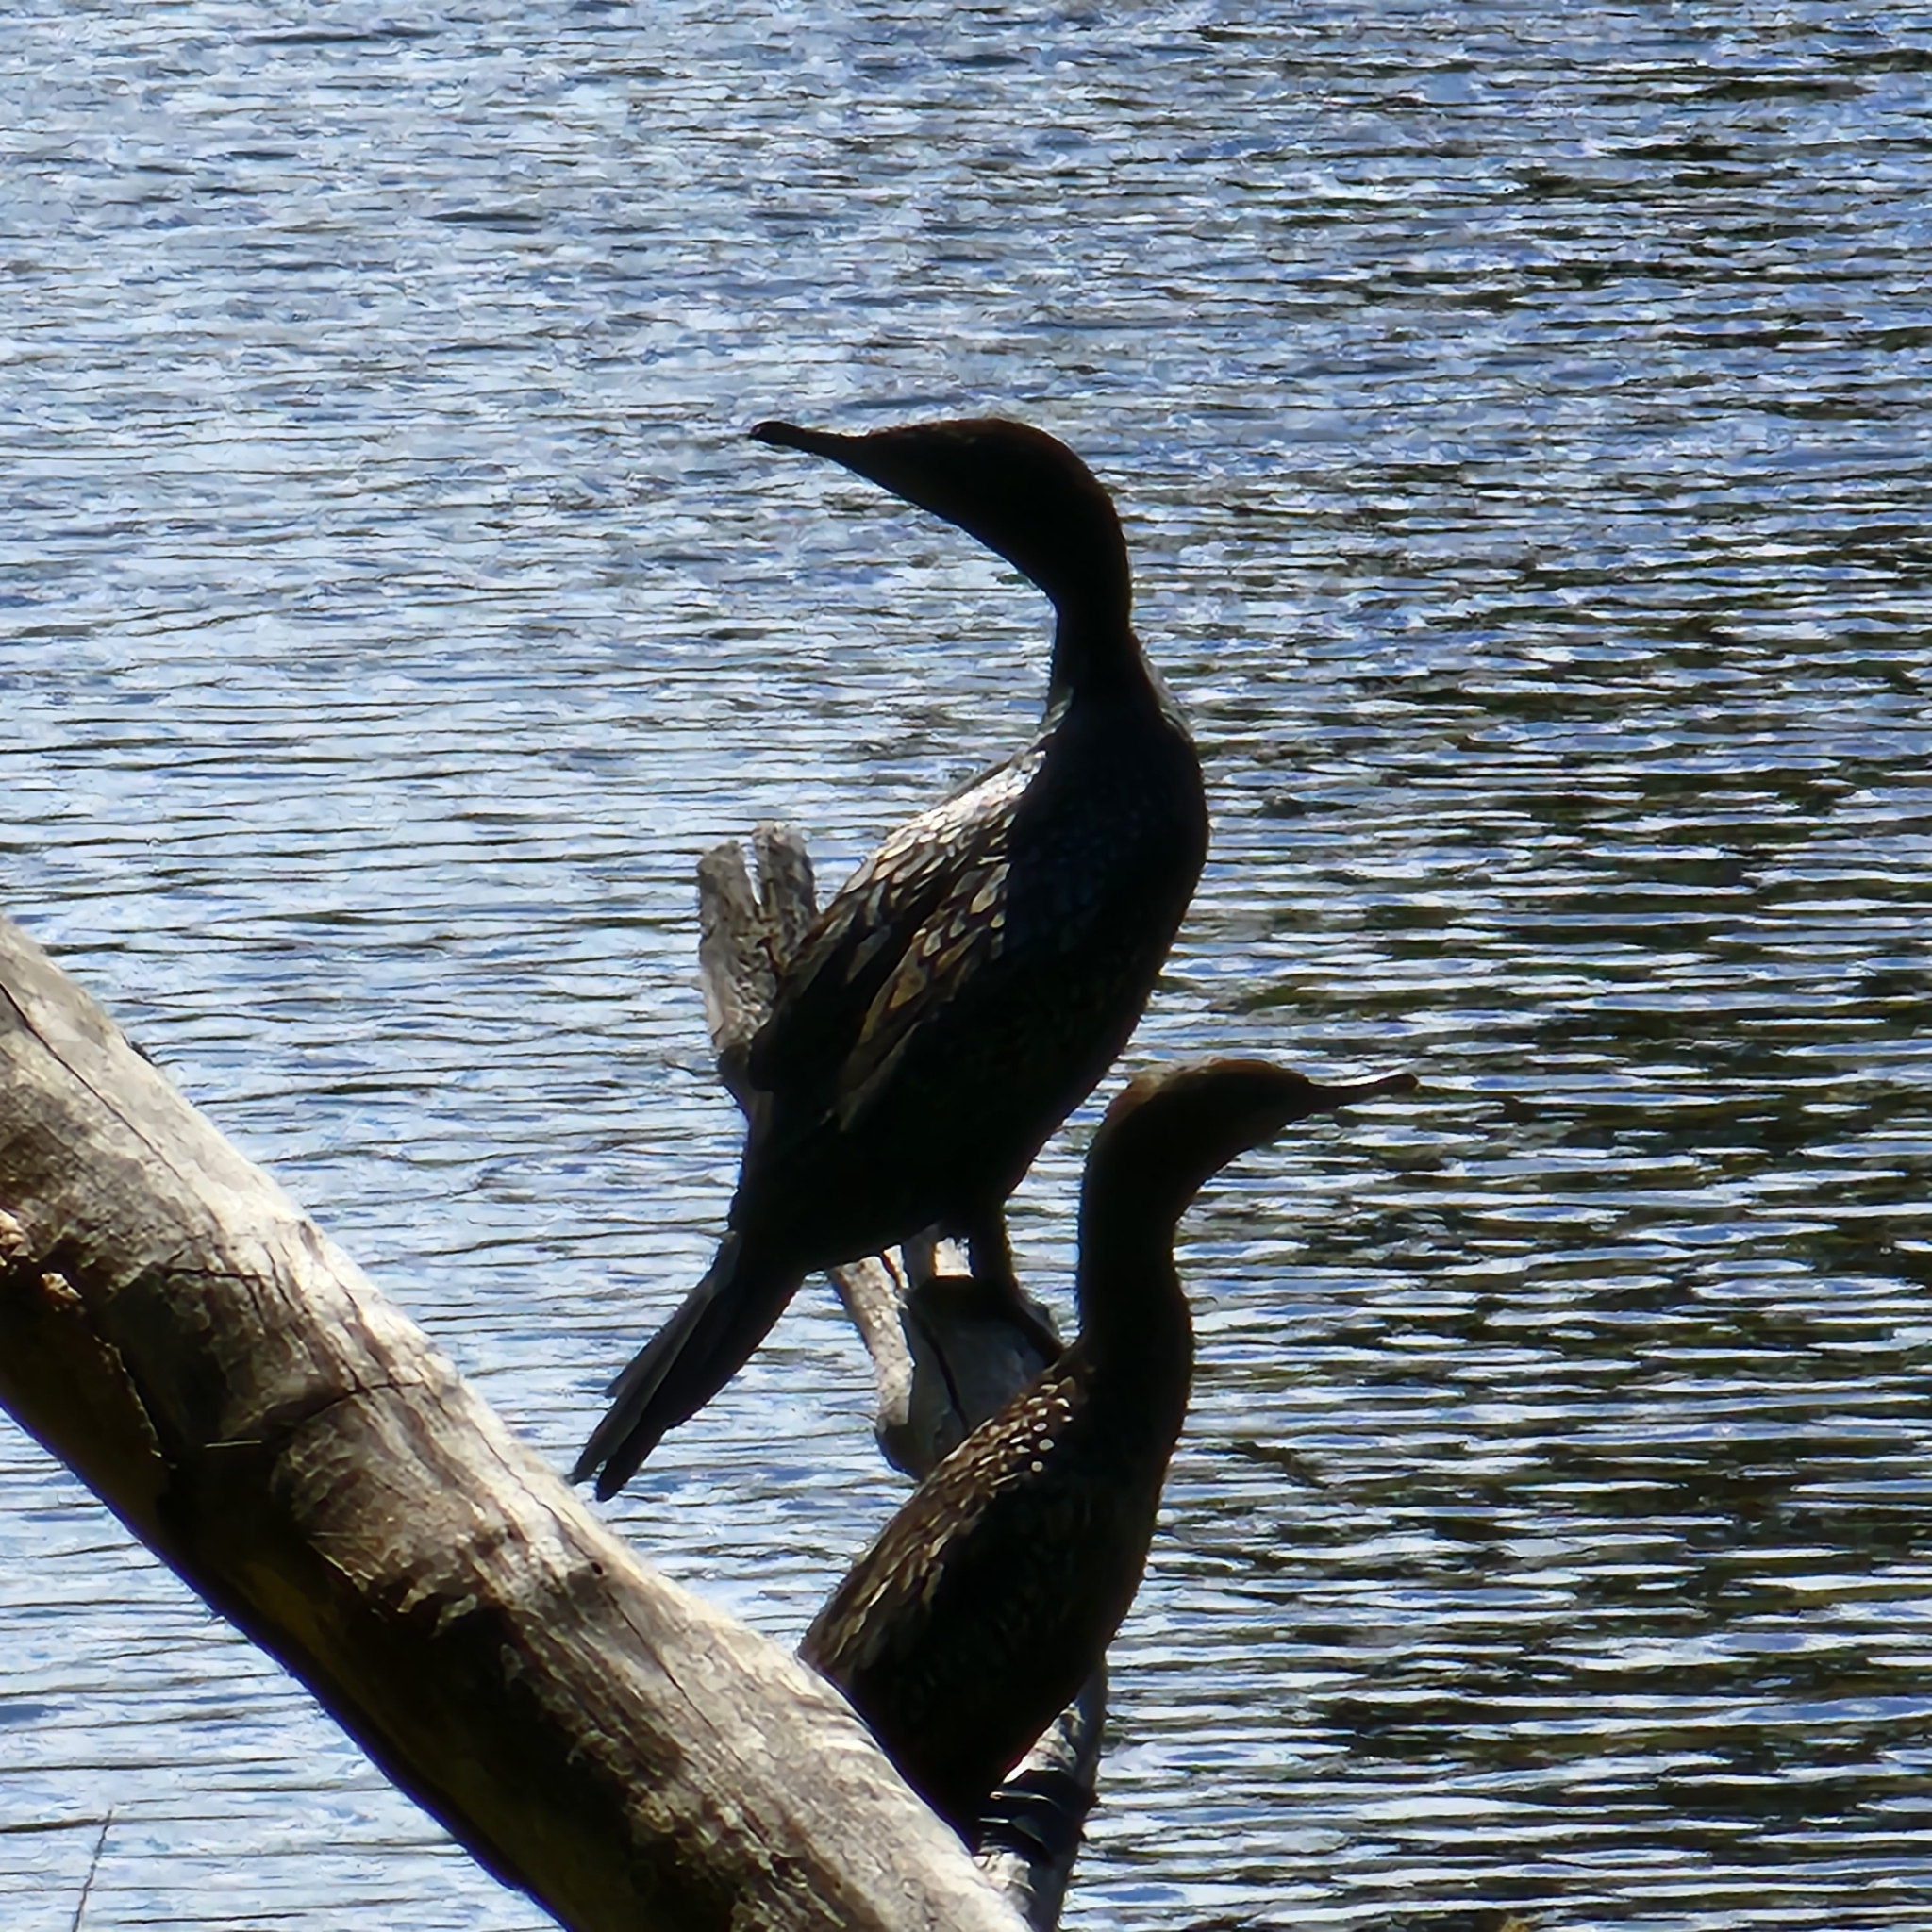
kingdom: Animalia
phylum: Chordata
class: Aves
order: Suliformes
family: Phalacrocoracidae
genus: Phalacrocorax
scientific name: Phalacrocorax sulcirostris
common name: Little black cormorant
